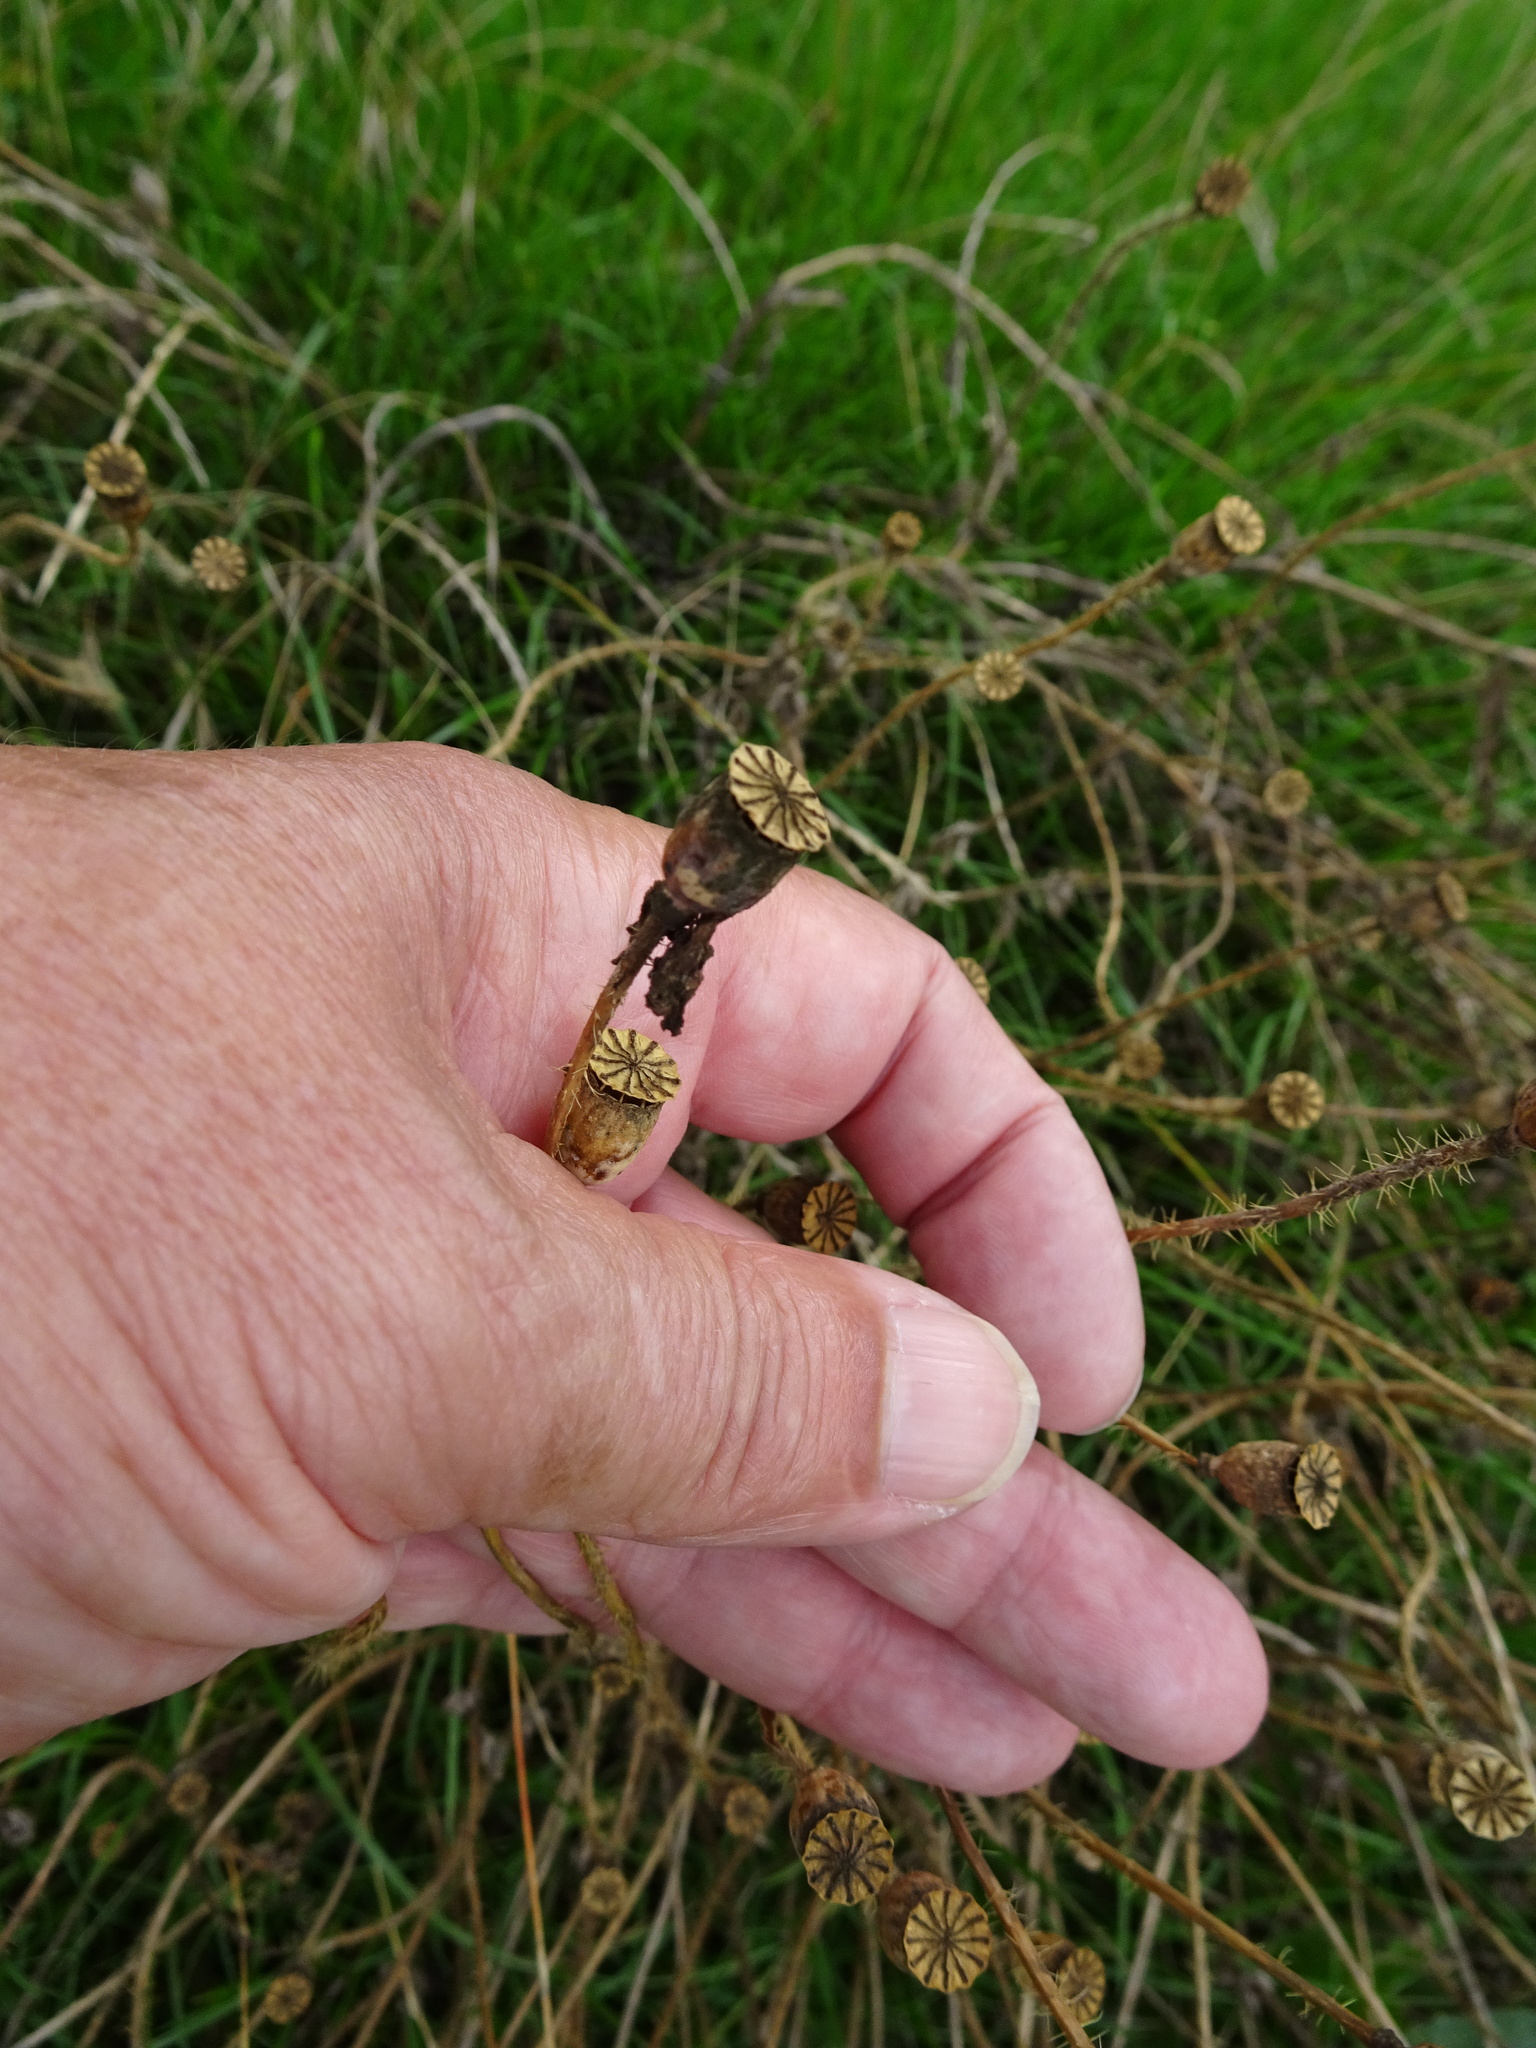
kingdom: Plantae
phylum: Tracheophyta
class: Magnoliopsida
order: Ranunculales
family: Papaveraceae
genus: Papaver
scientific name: Papaver rhoeas
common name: Corn poppy
